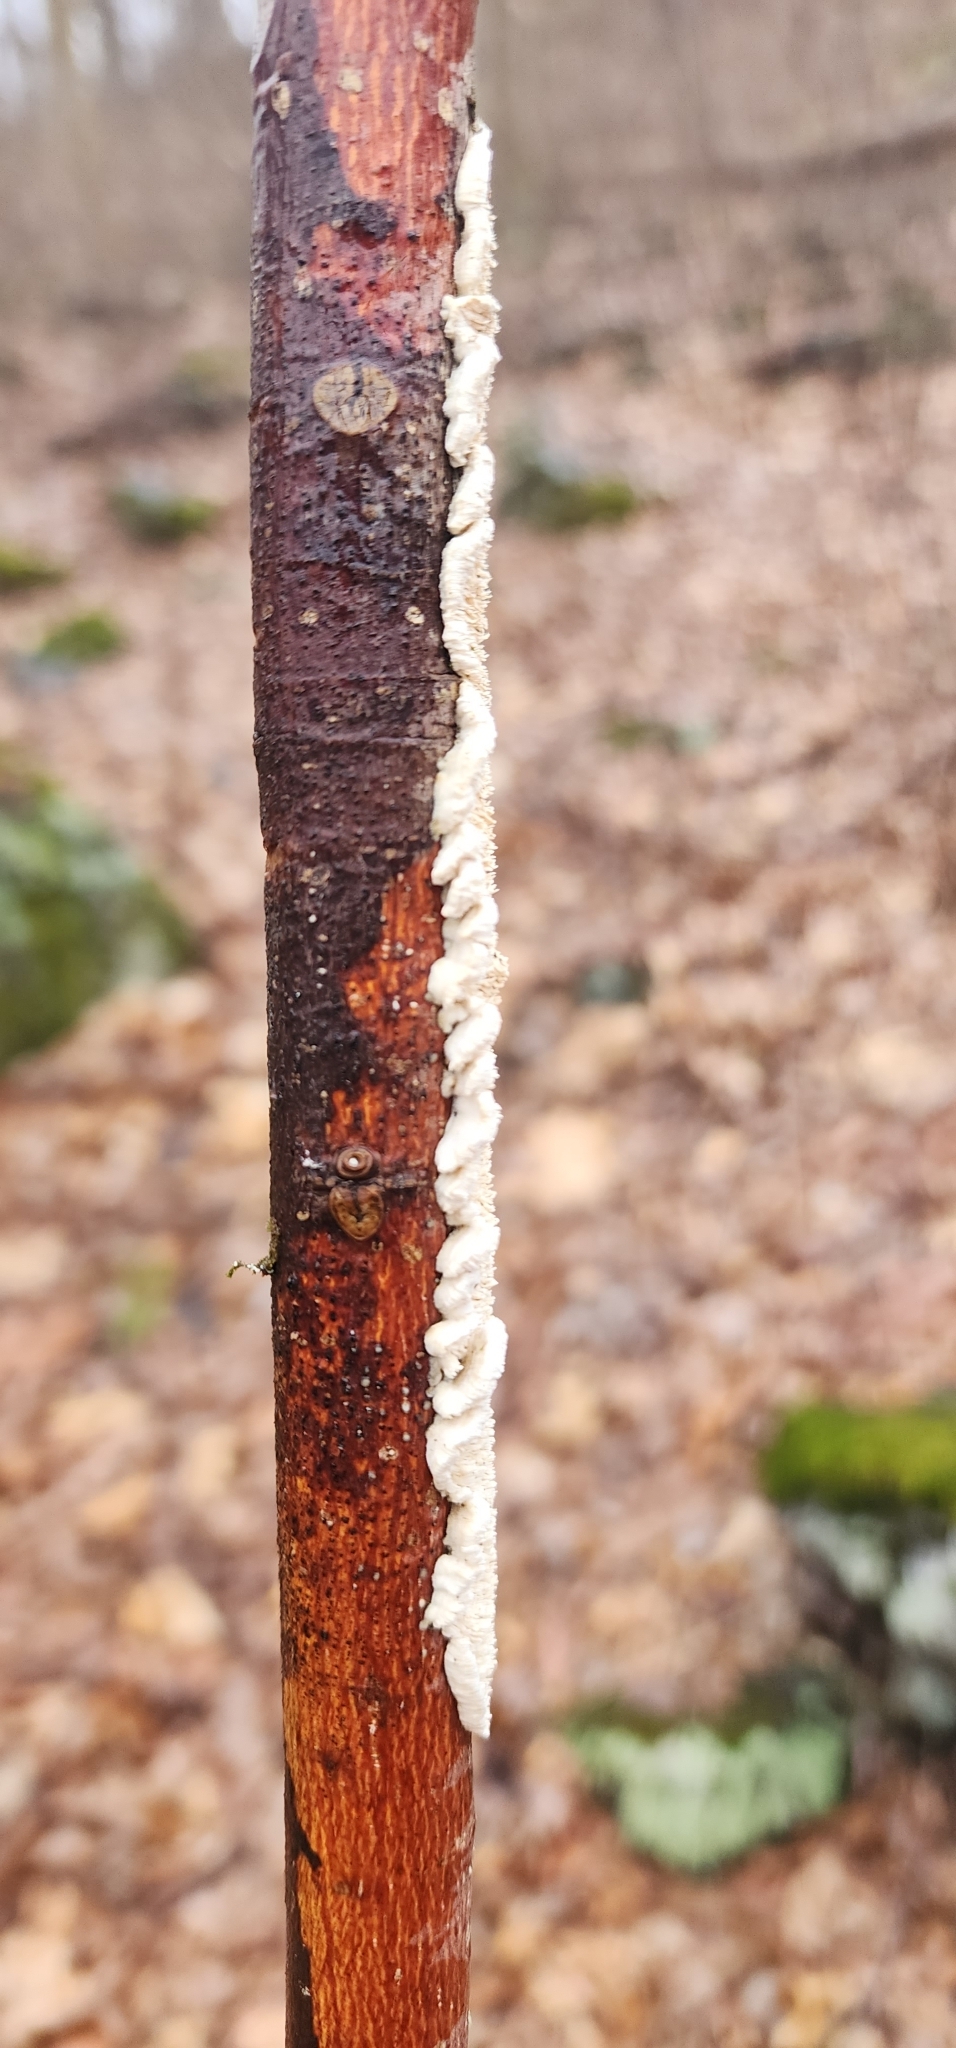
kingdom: Fungi
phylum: Basidiomycota
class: Agaricomycetes
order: Polyporales
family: Irpicaceae
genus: Irpex
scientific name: Irpex lacteus
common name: Milk-white toothed polypore
